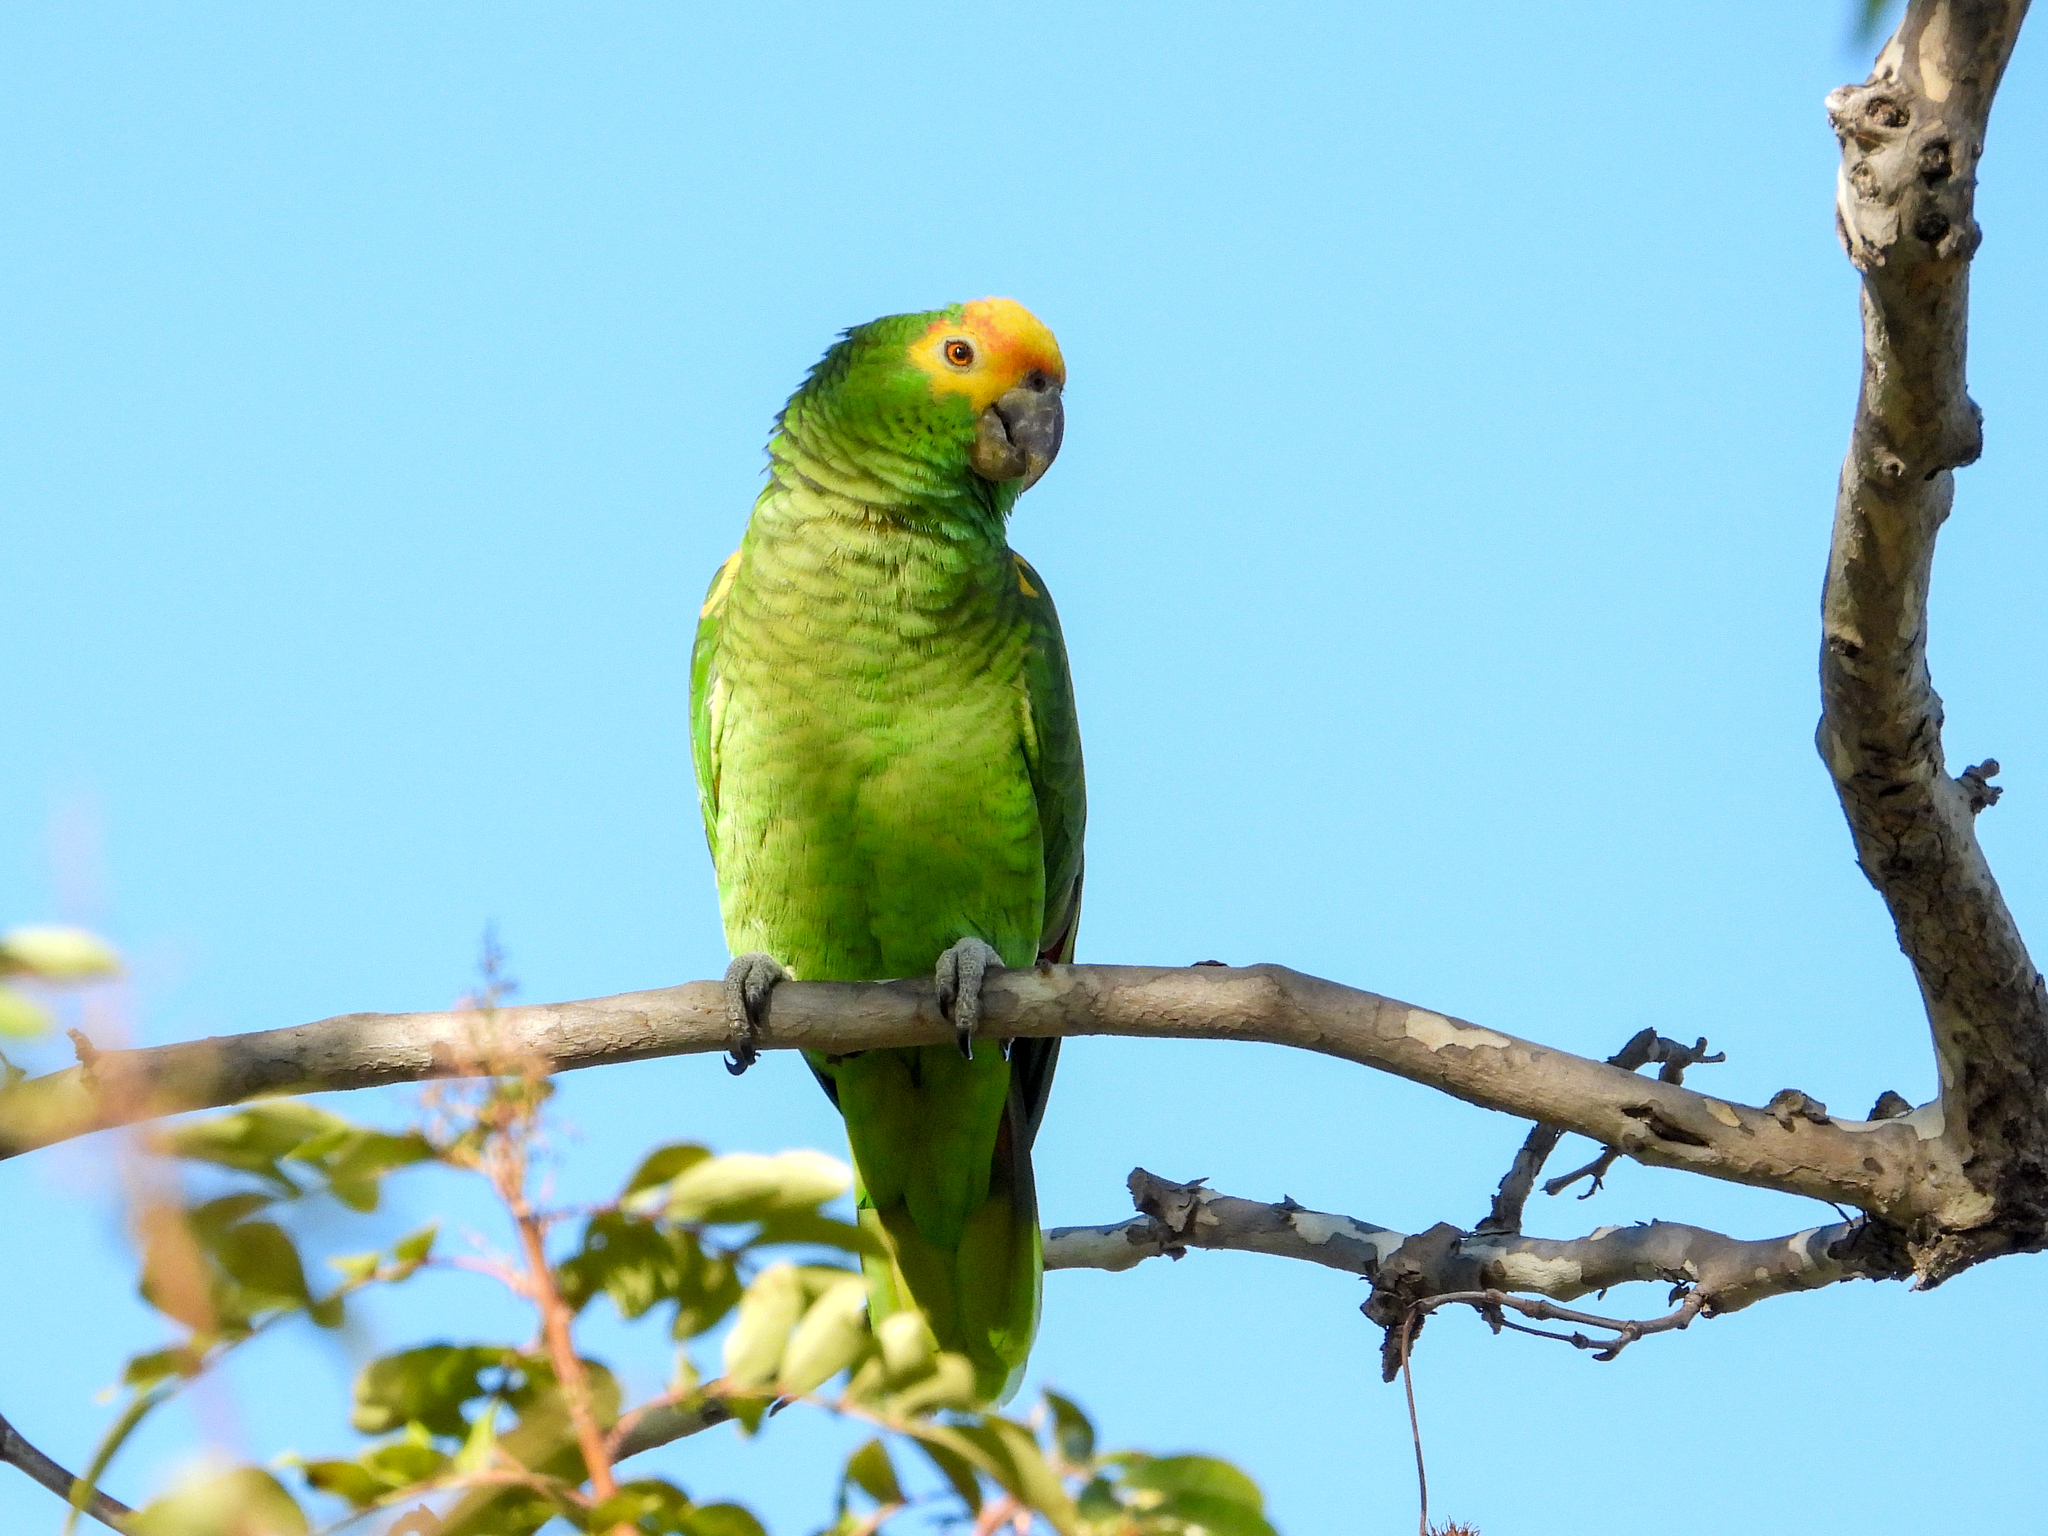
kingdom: Animalia
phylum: Chordata
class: Aves
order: Psittaciformes
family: Psittacidae
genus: Amazona
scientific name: Amazona
